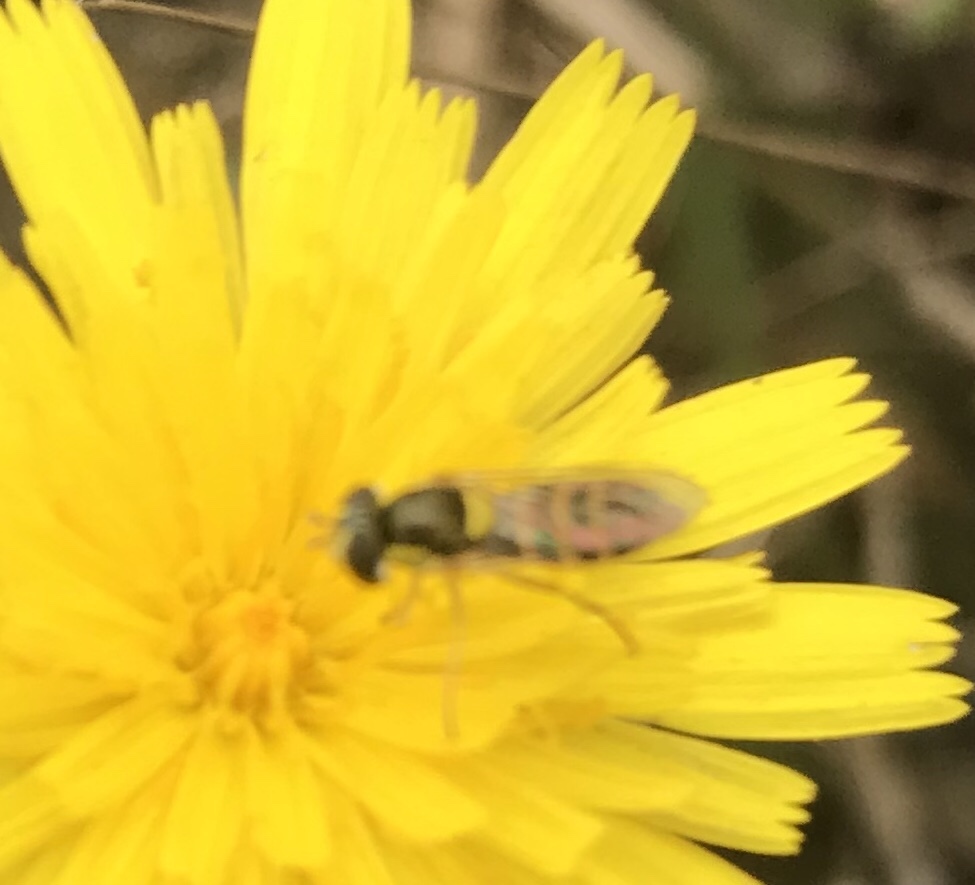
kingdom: Animalia
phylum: Arthropoda
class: Insecta
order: Diptera
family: Syrphidae
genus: Sphaerophoria
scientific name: Sphaerophoria
